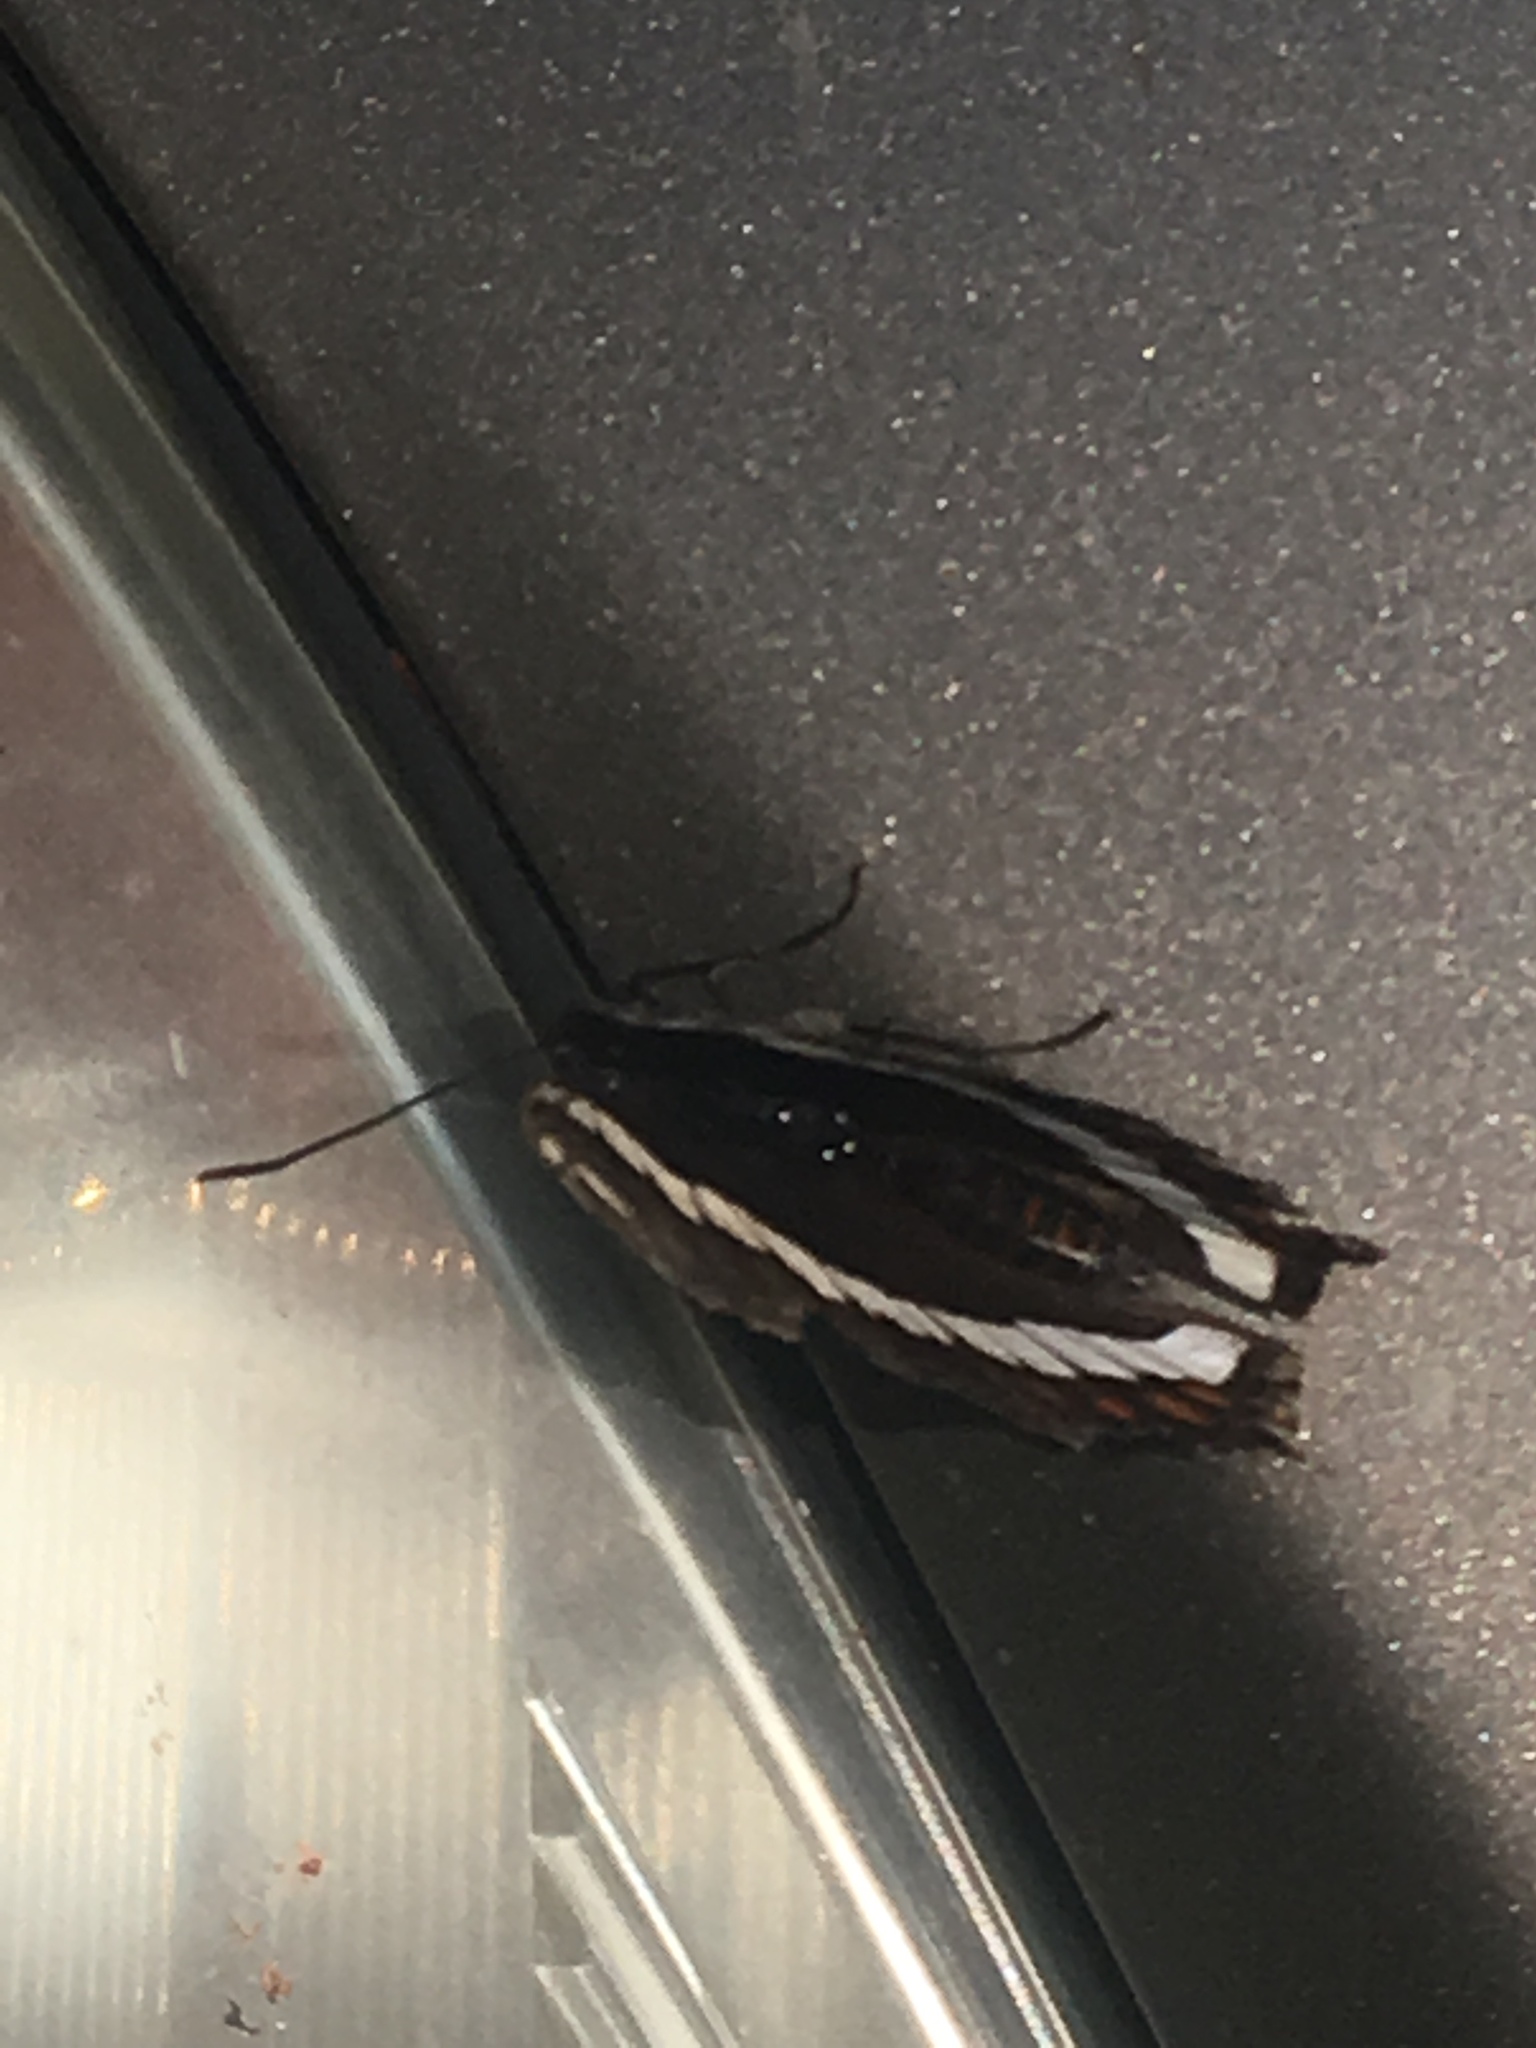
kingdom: Animalia
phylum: Arthropoda
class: Insecta
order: Lepidoptera
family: Nymphalidae
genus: Limenitis
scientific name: Limenitis arthemis
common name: Red-spotted admiral
